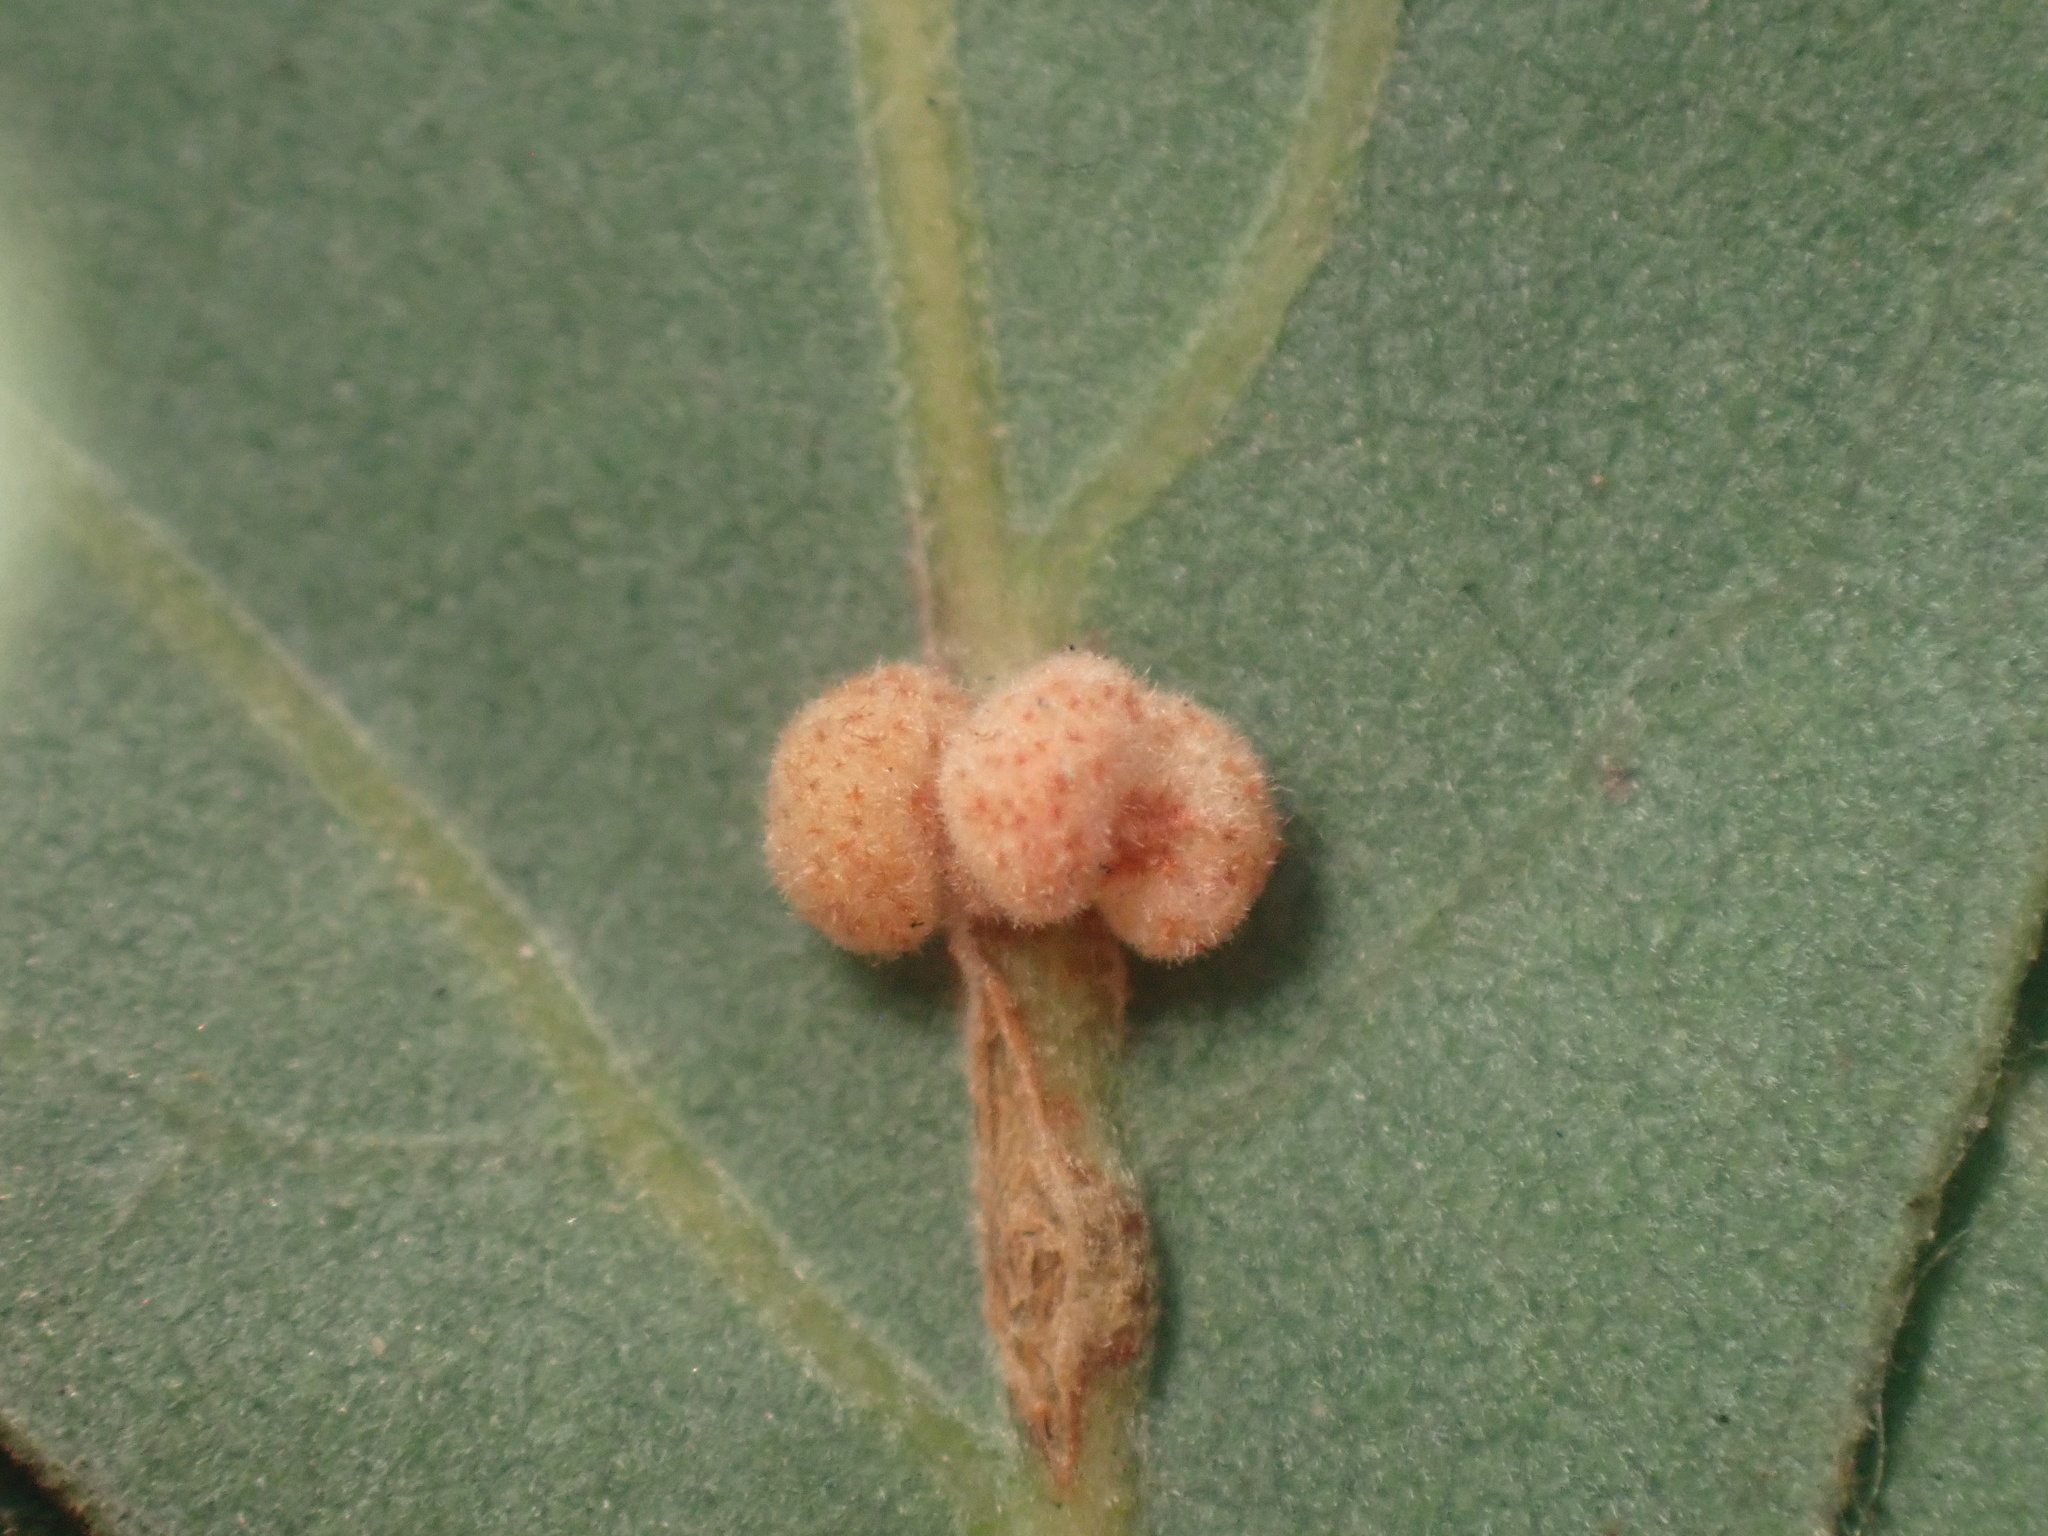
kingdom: Animalia
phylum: Arthropoda
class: Insecta
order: Hymenoptera
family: Cynipidae
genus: Andricus
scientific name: Andricus
